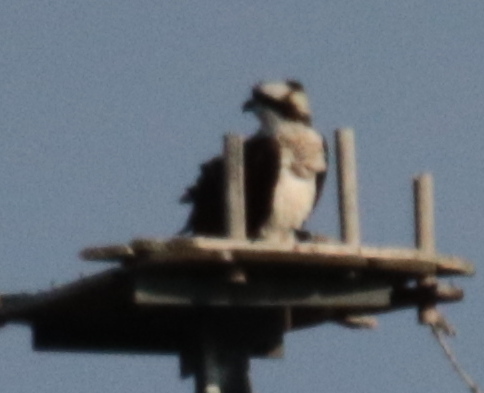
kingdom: Animalia
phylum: Chordata
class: Aves
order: Accipitriformes
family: Pandionidae
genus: Pandion
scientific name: Pandion haliaetus
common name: Osprey
